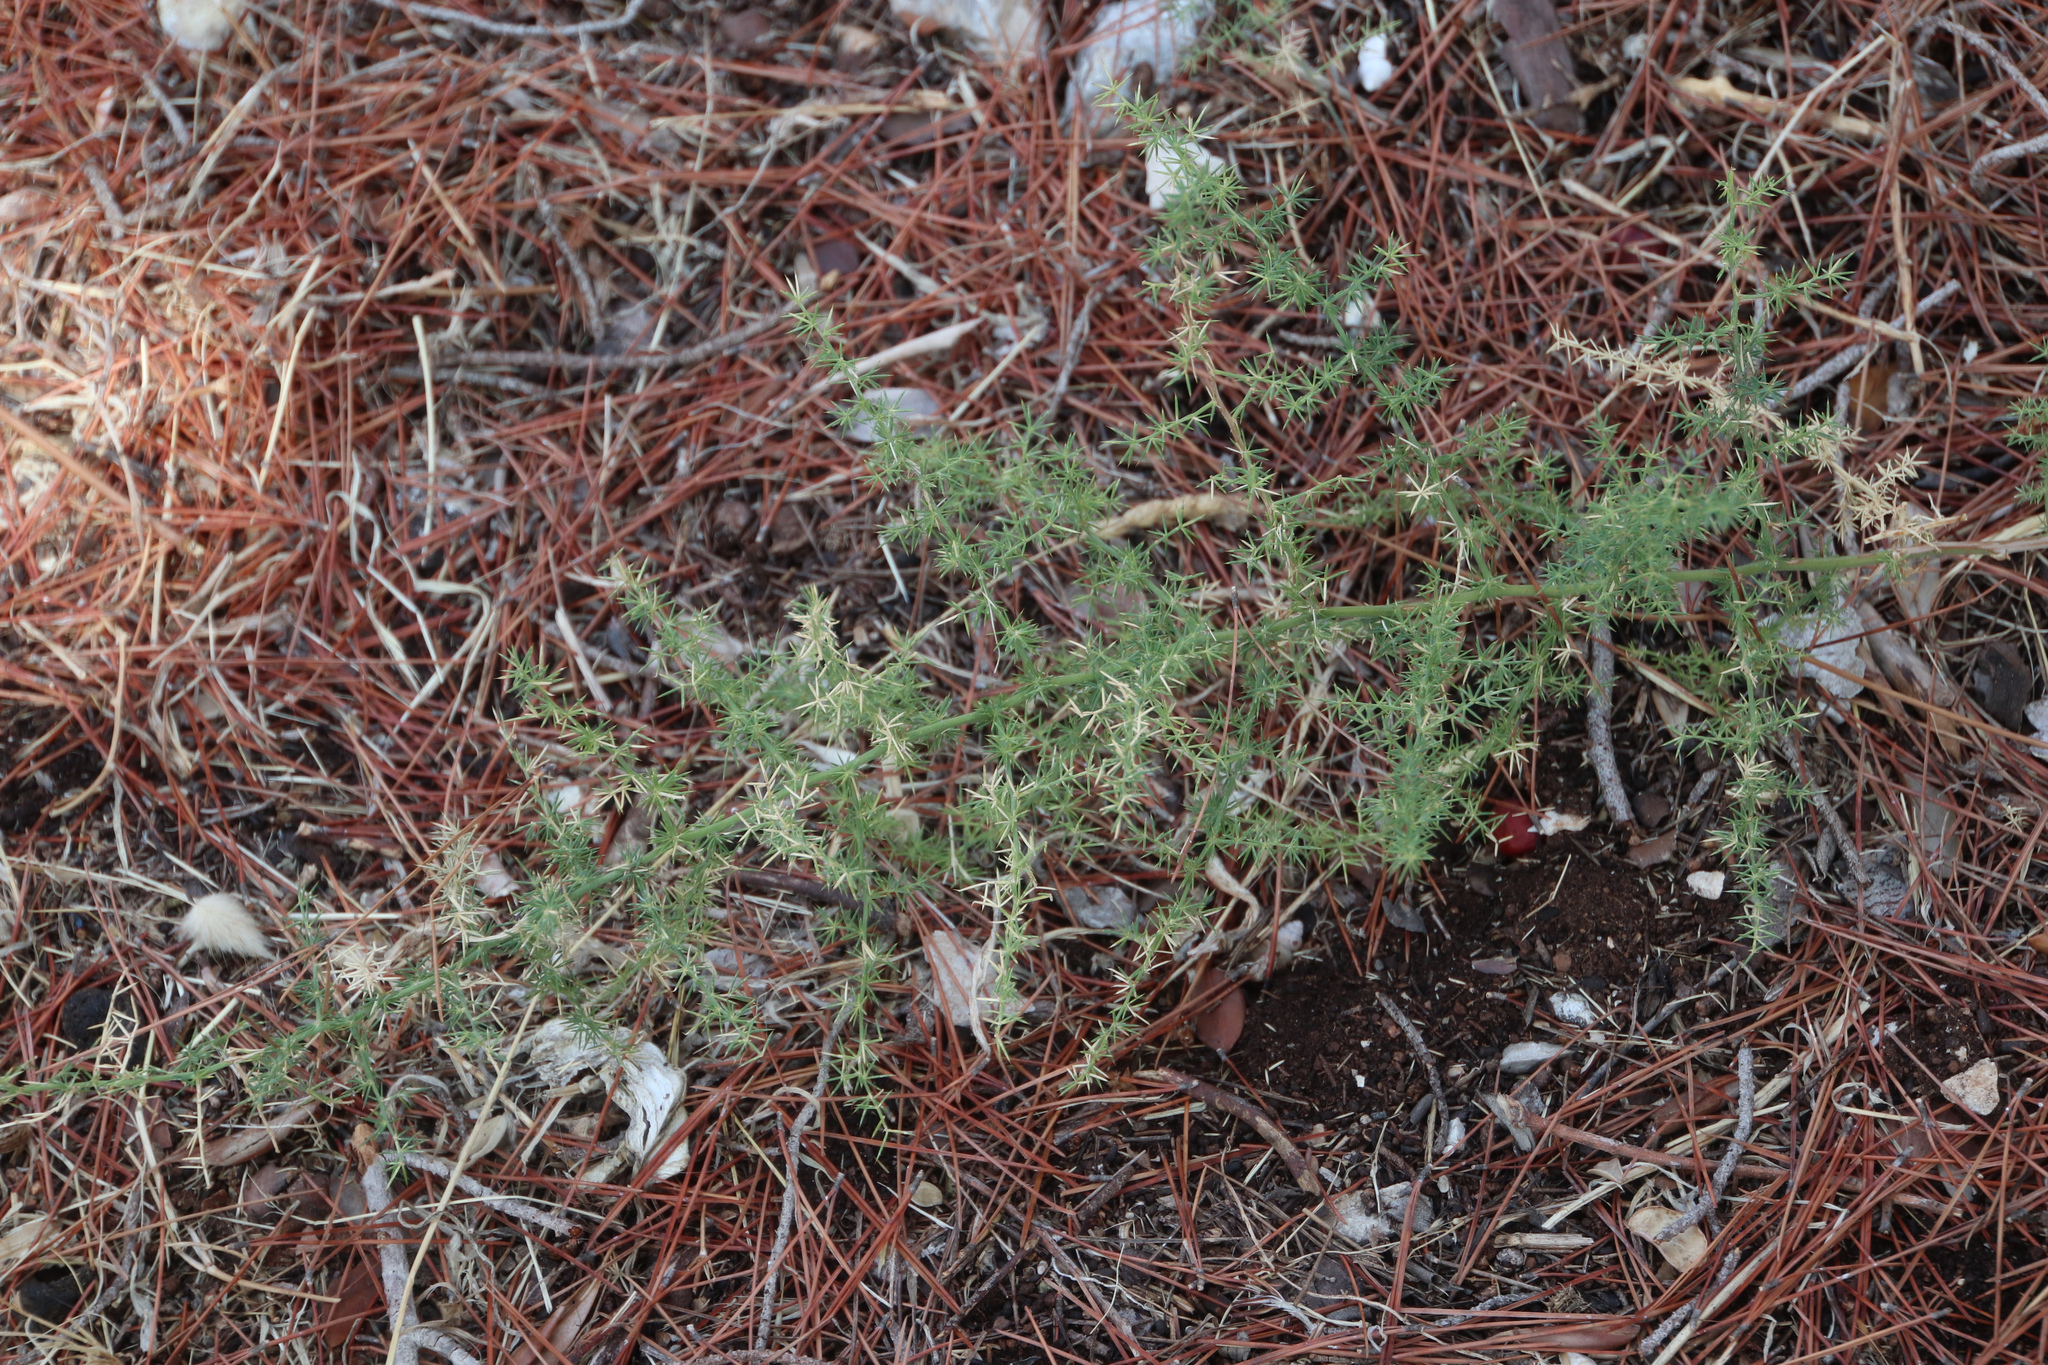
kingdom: Plantae
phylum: Tracheophyta
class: Liliopsida
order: Asparagales
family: Asparagaceae
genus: Asparagus
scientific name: Asparagus acutifolius
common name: Wild asparagus
